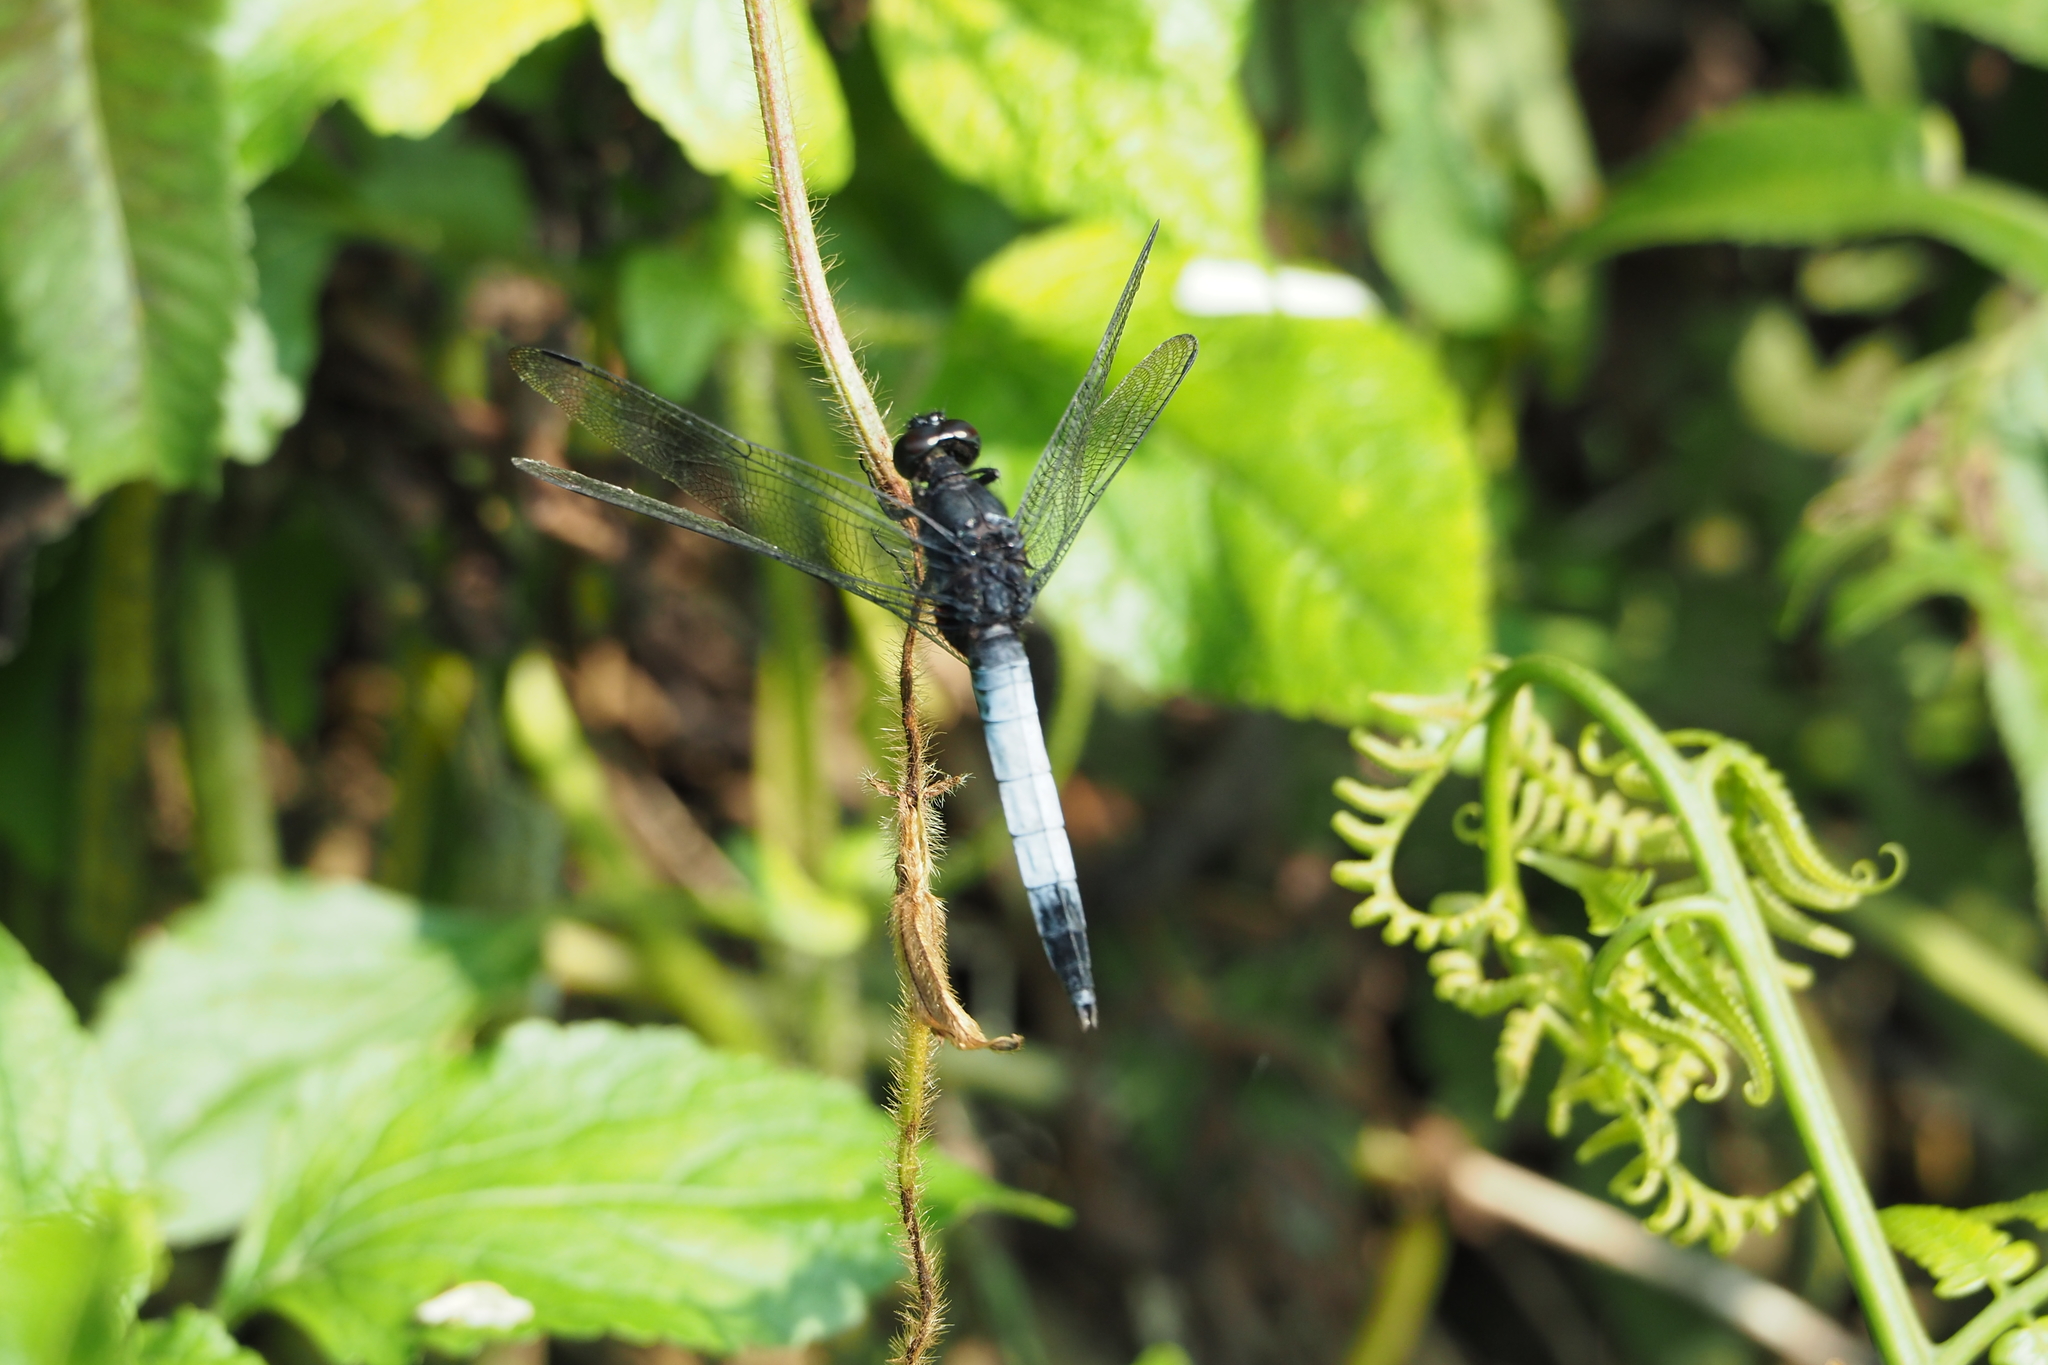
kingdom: Animalia
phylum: Arthropoda
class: Insecta
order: Odonata
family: Libellulidae
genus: Orthetrum
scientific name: Orthetrum triangulare
